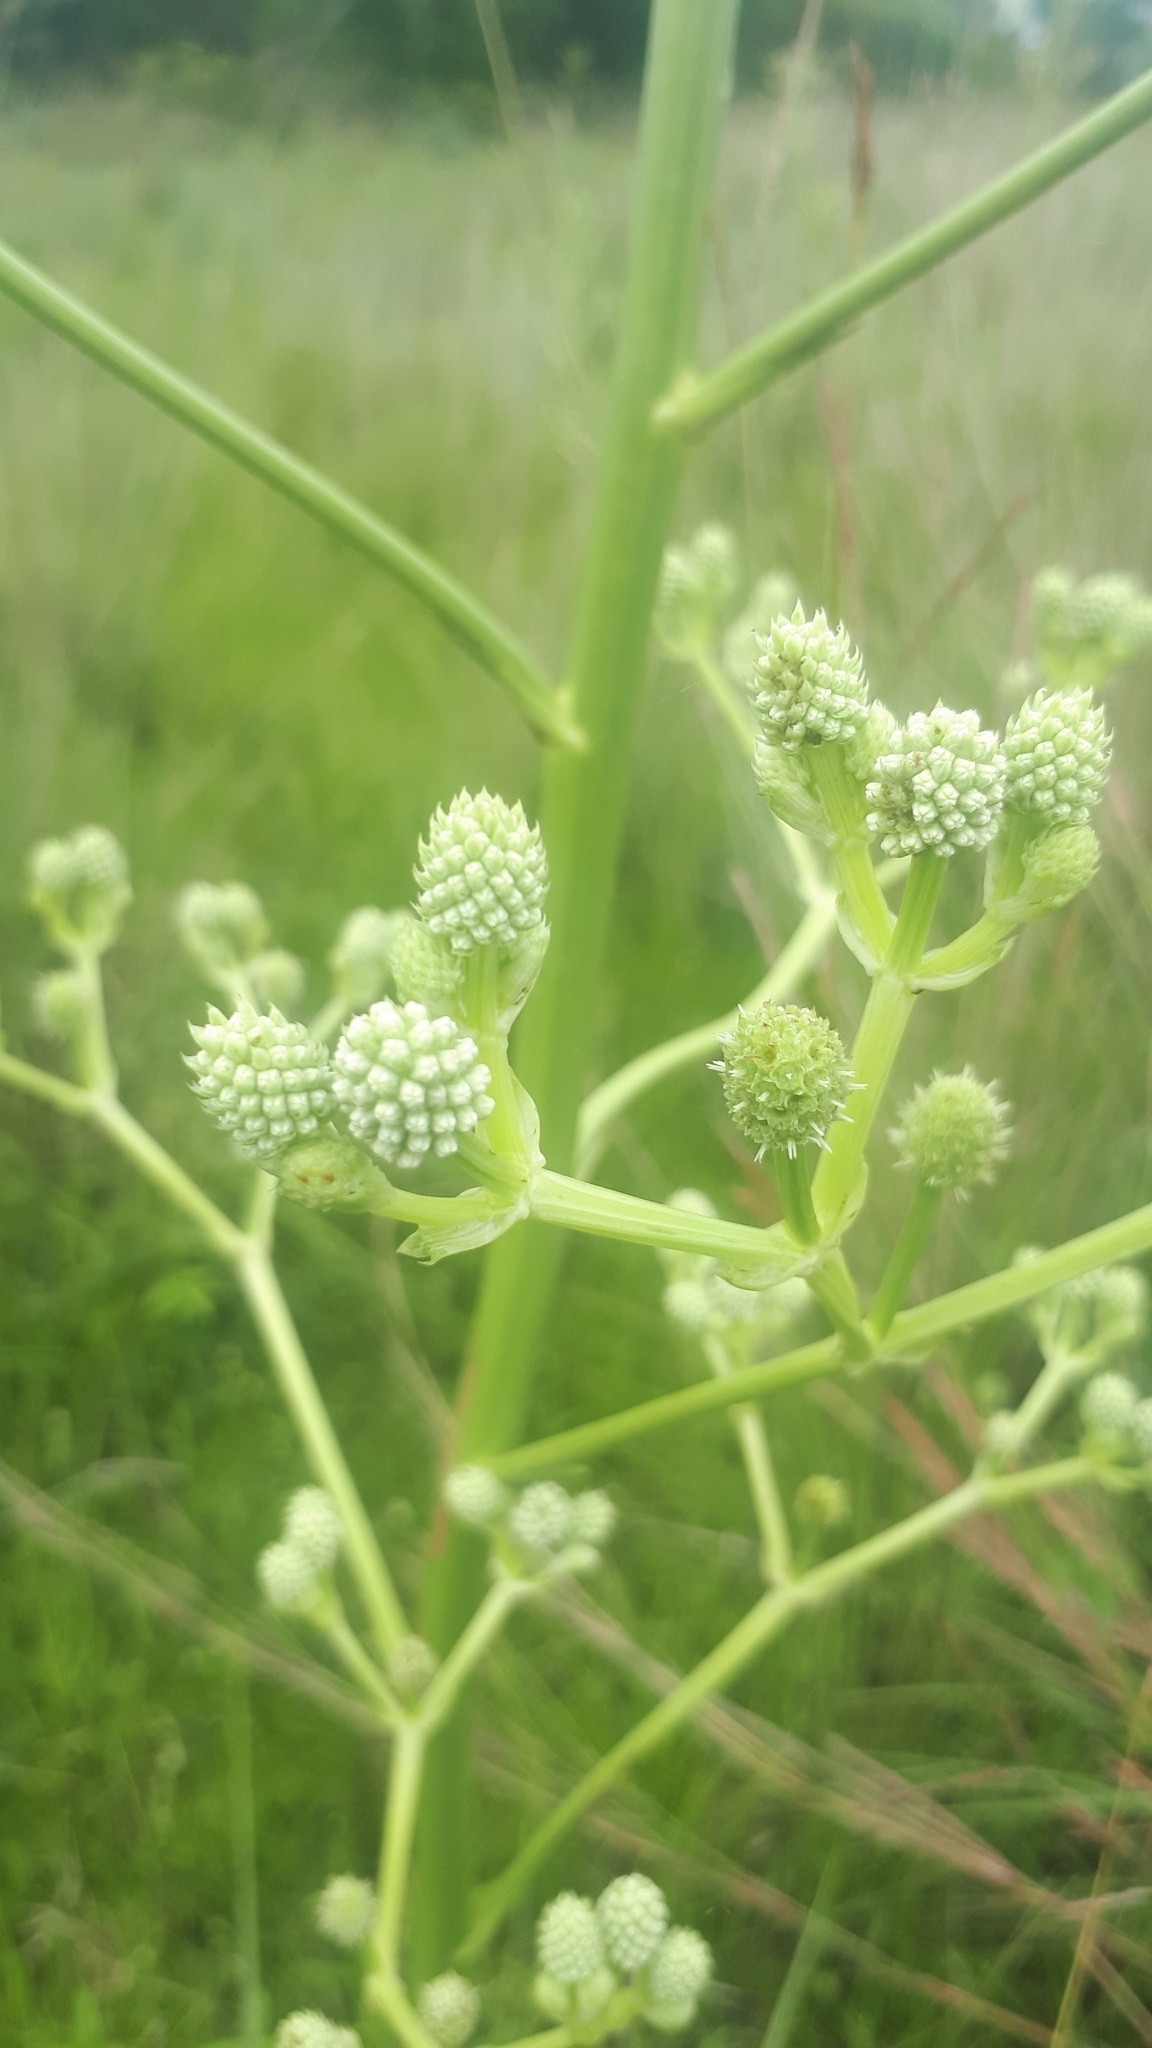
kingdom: Plantae
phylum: Tracheophyta
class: Magnoliopsida
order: Apiales
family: Apiaceae
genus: Eryngium
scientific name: Eryngium pandanifolium
